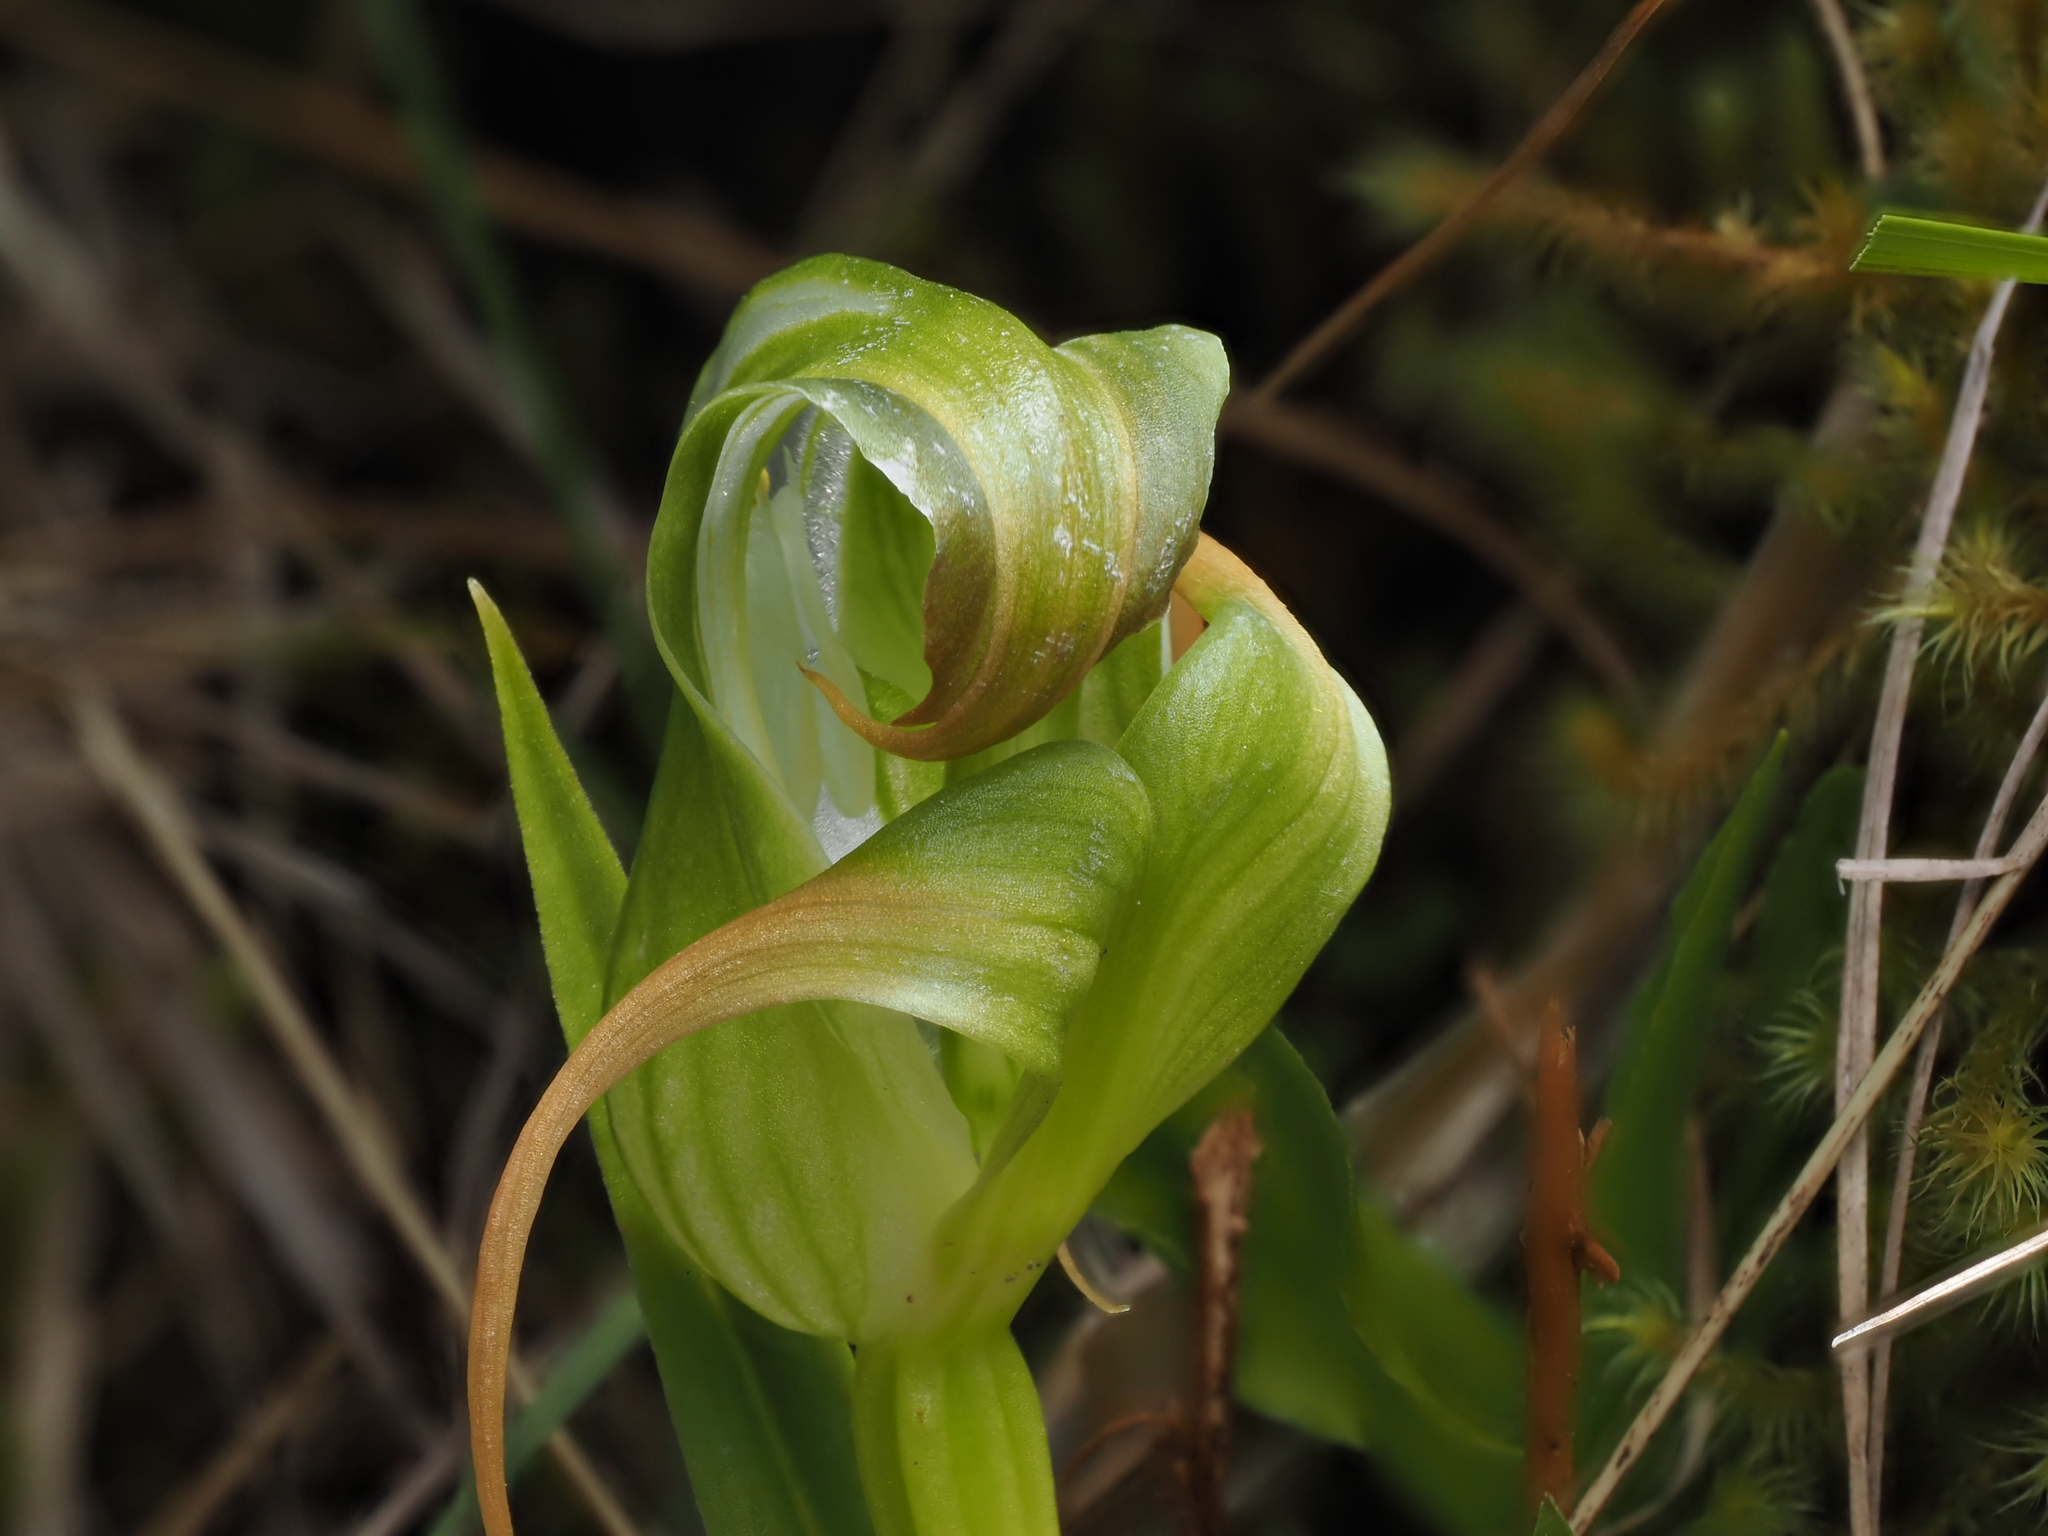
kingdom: Plantae
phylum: Tracheophyta
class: Liliopsida
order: Asparagales
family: Orchidaceae
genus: Pterostylis
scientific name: Pterostylis patens
